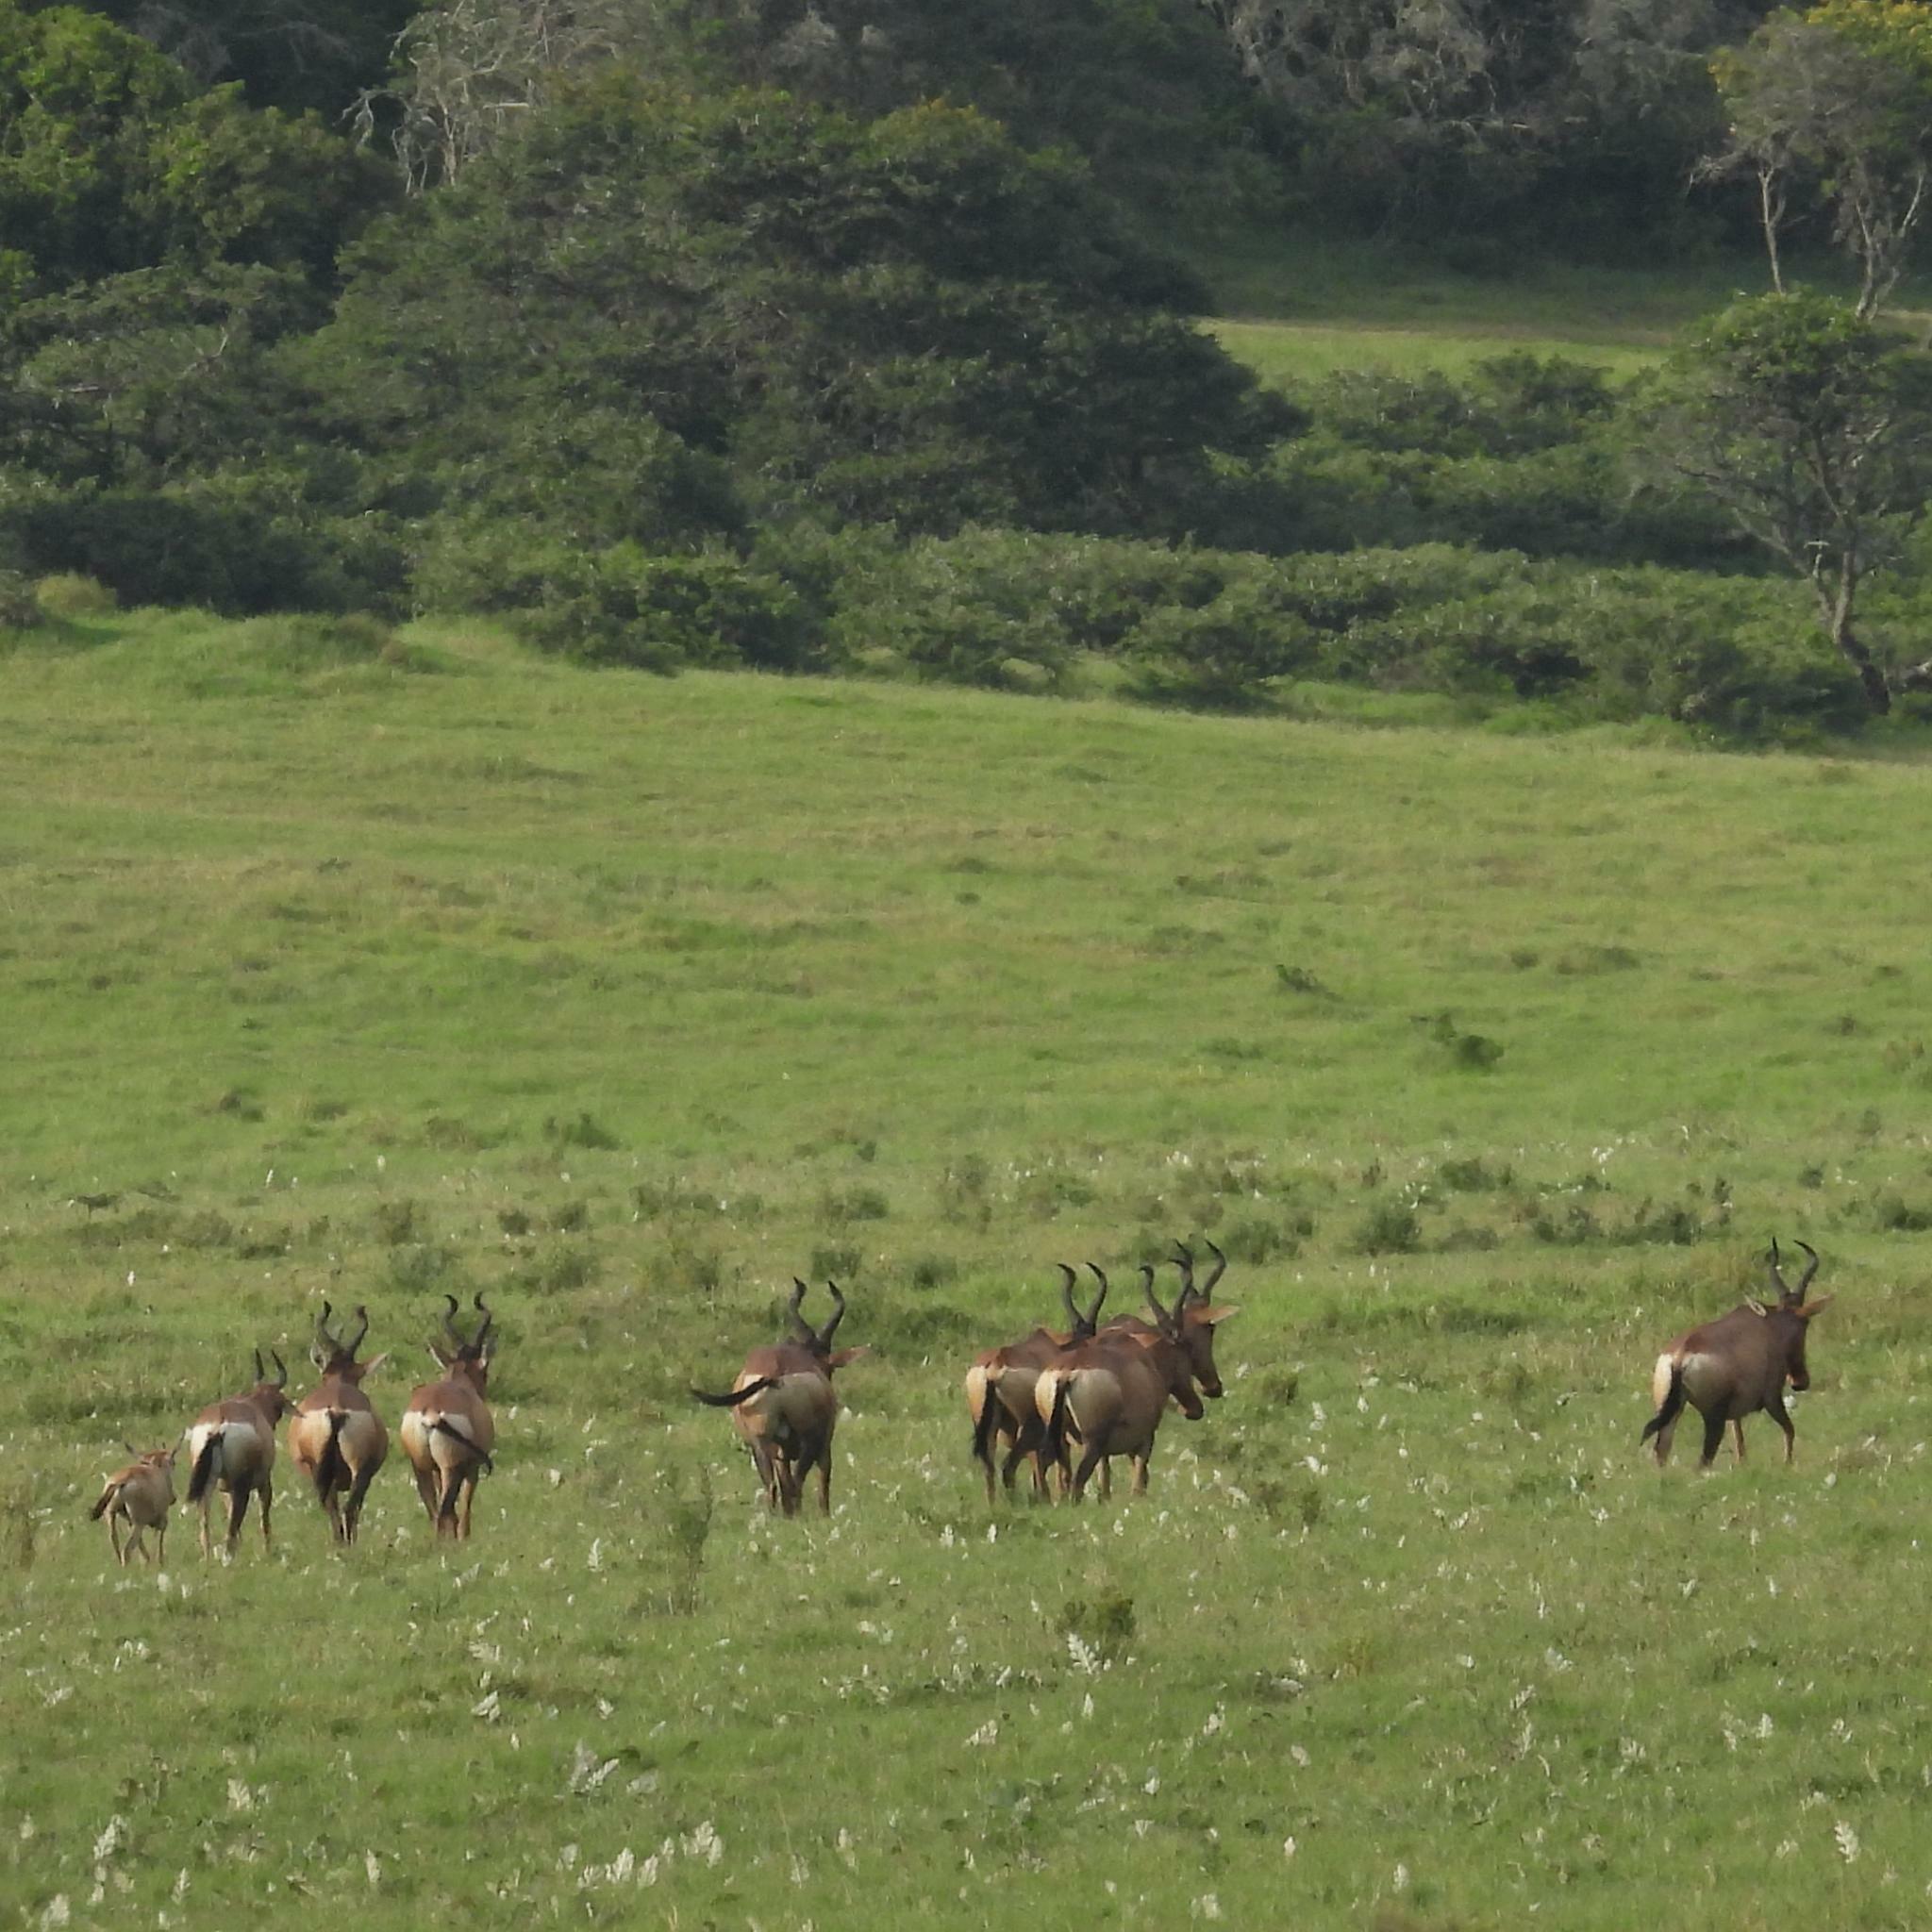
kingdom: Animalia
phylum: Chordata
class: Mammalia
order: Artiodactyla
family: Bovidae
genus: Alcelaphus
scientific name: Alcelaphus caama
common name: Red hartebeest
